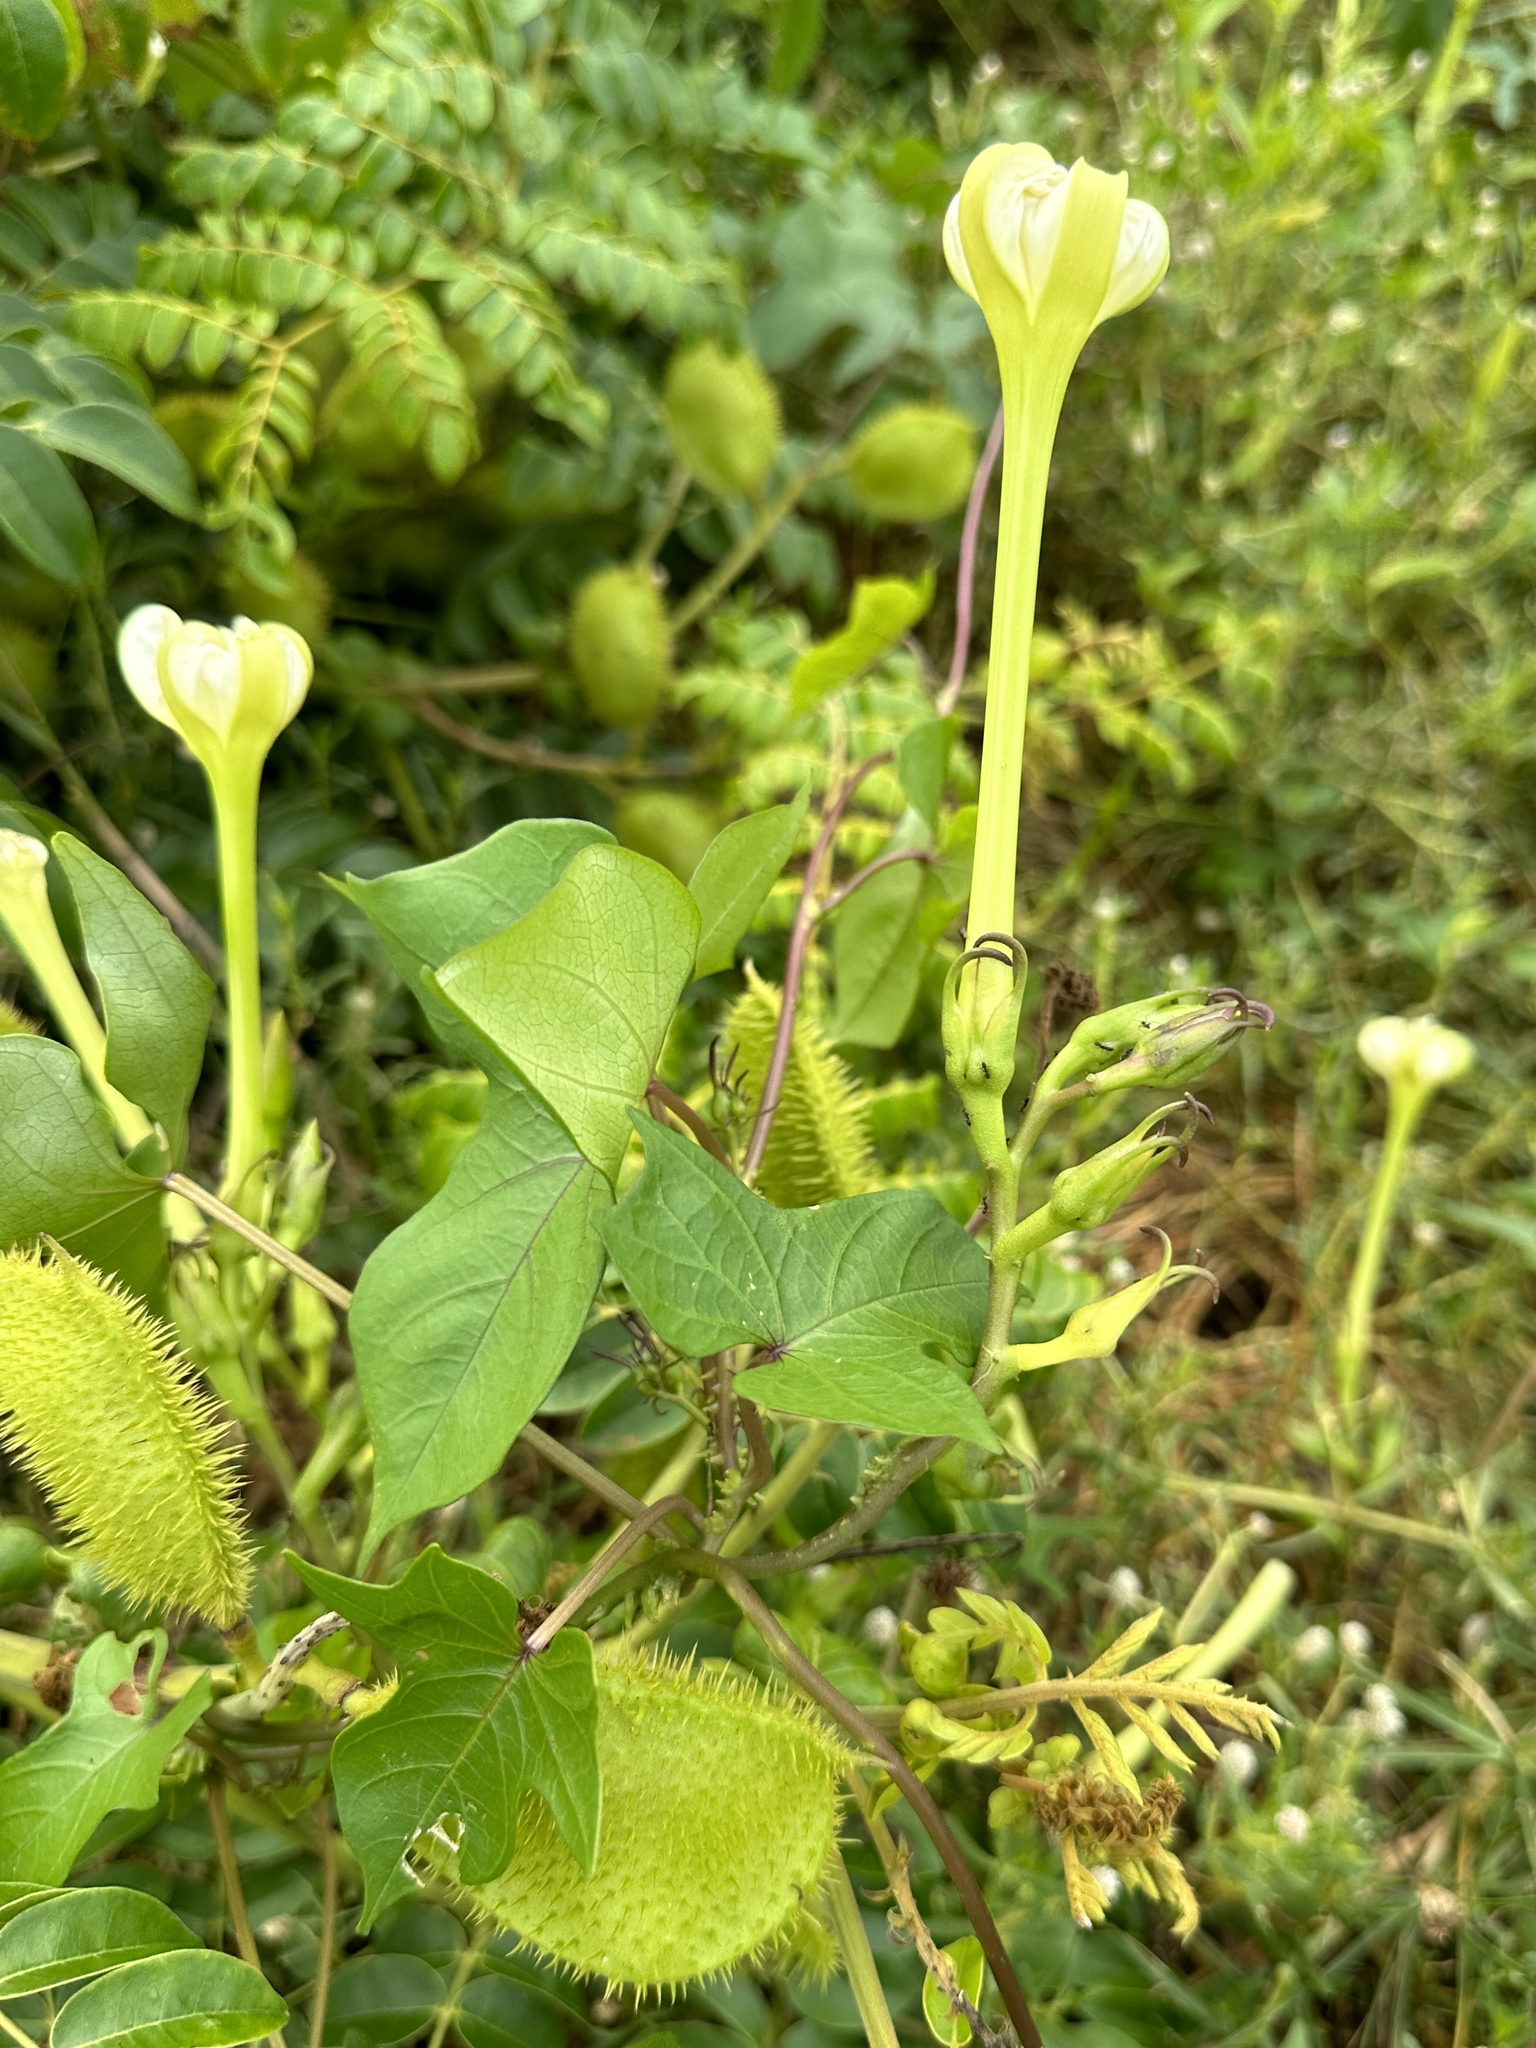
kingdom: Plantae
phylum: Tracheophyta
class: Magnoliopsida
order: Solanales
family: Convolvulaceae
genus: Ipomoea
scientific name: Ipomoea alba
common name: Moonflower
